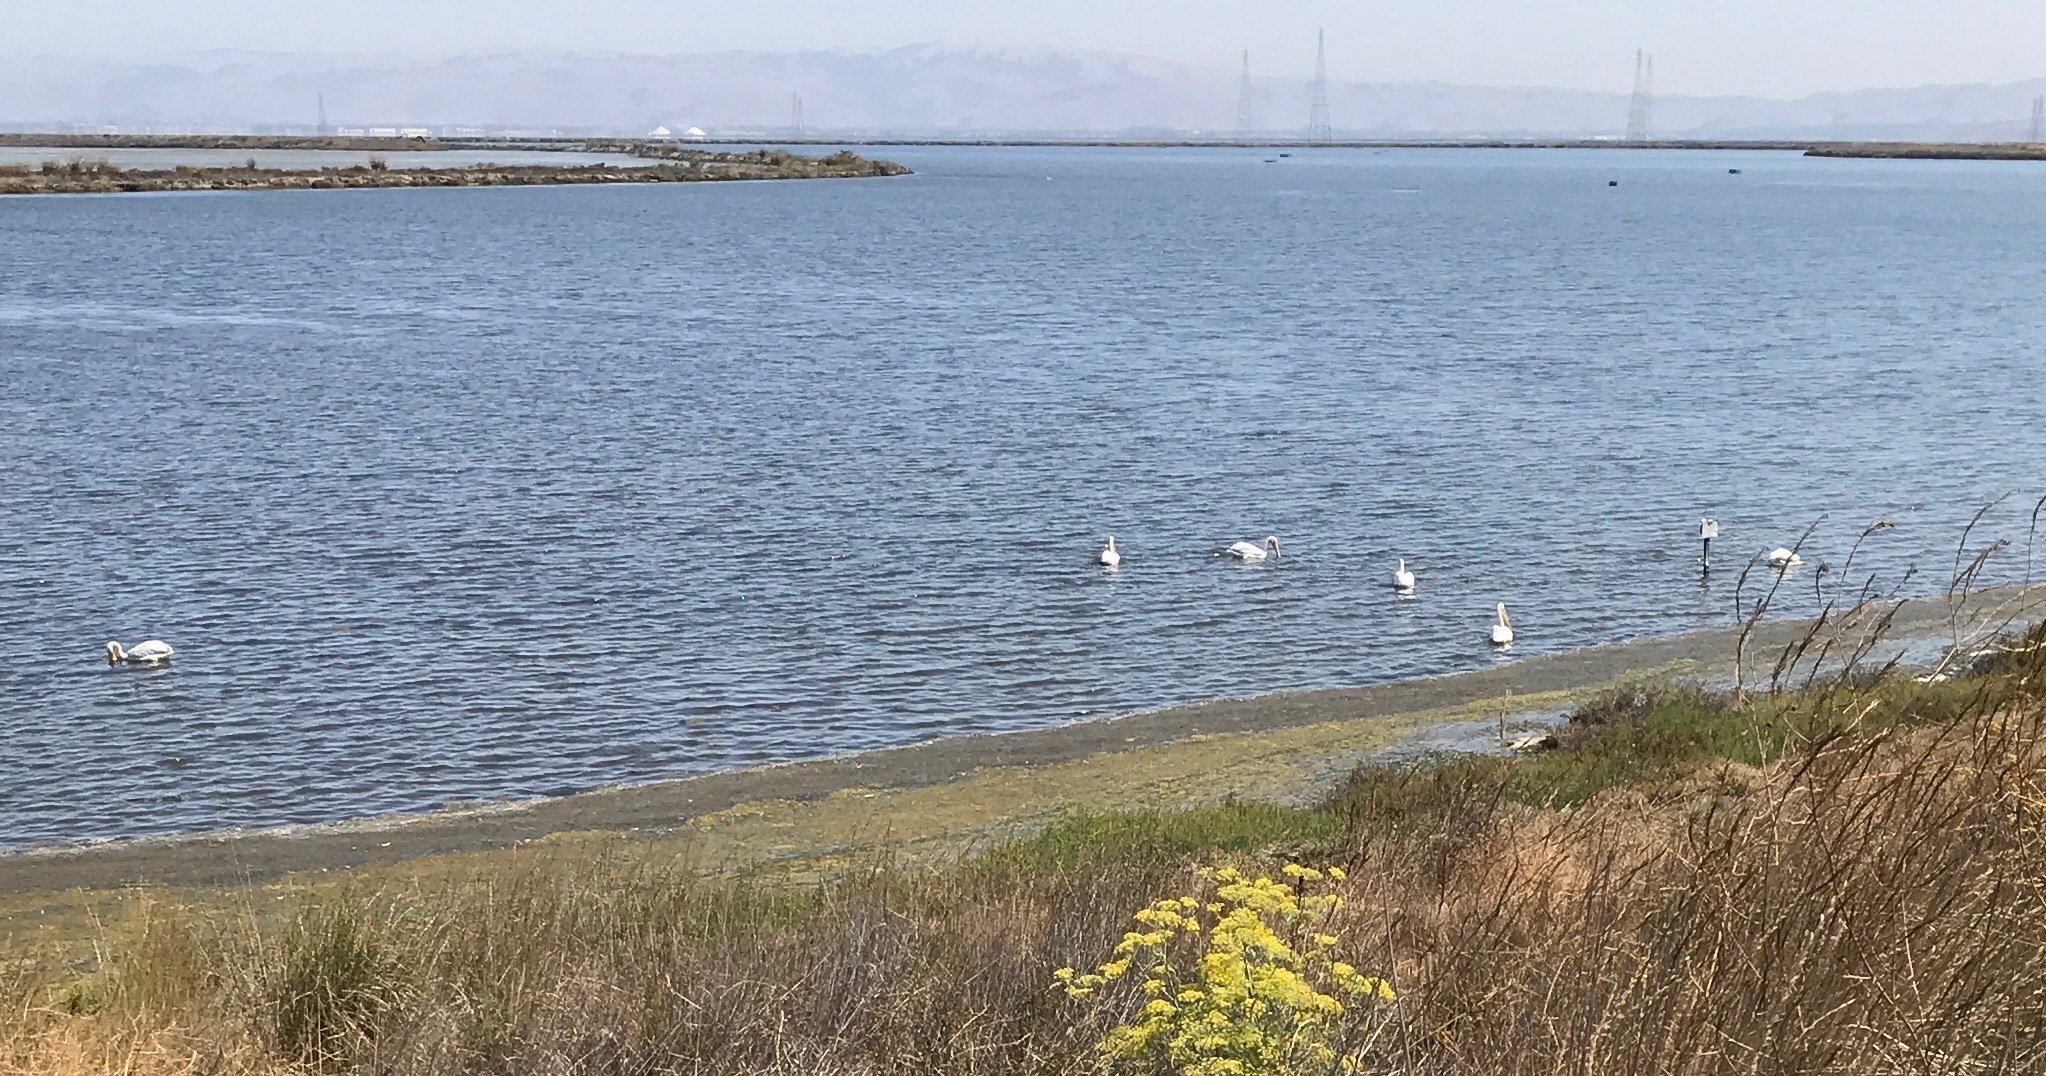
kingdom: Animalia
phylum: Chordata
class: Aves
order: Pelecaniformes
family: Pelecanidae
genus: Pelecanus
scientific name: Pelecanus erythrorhynchos
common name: American white pelican
